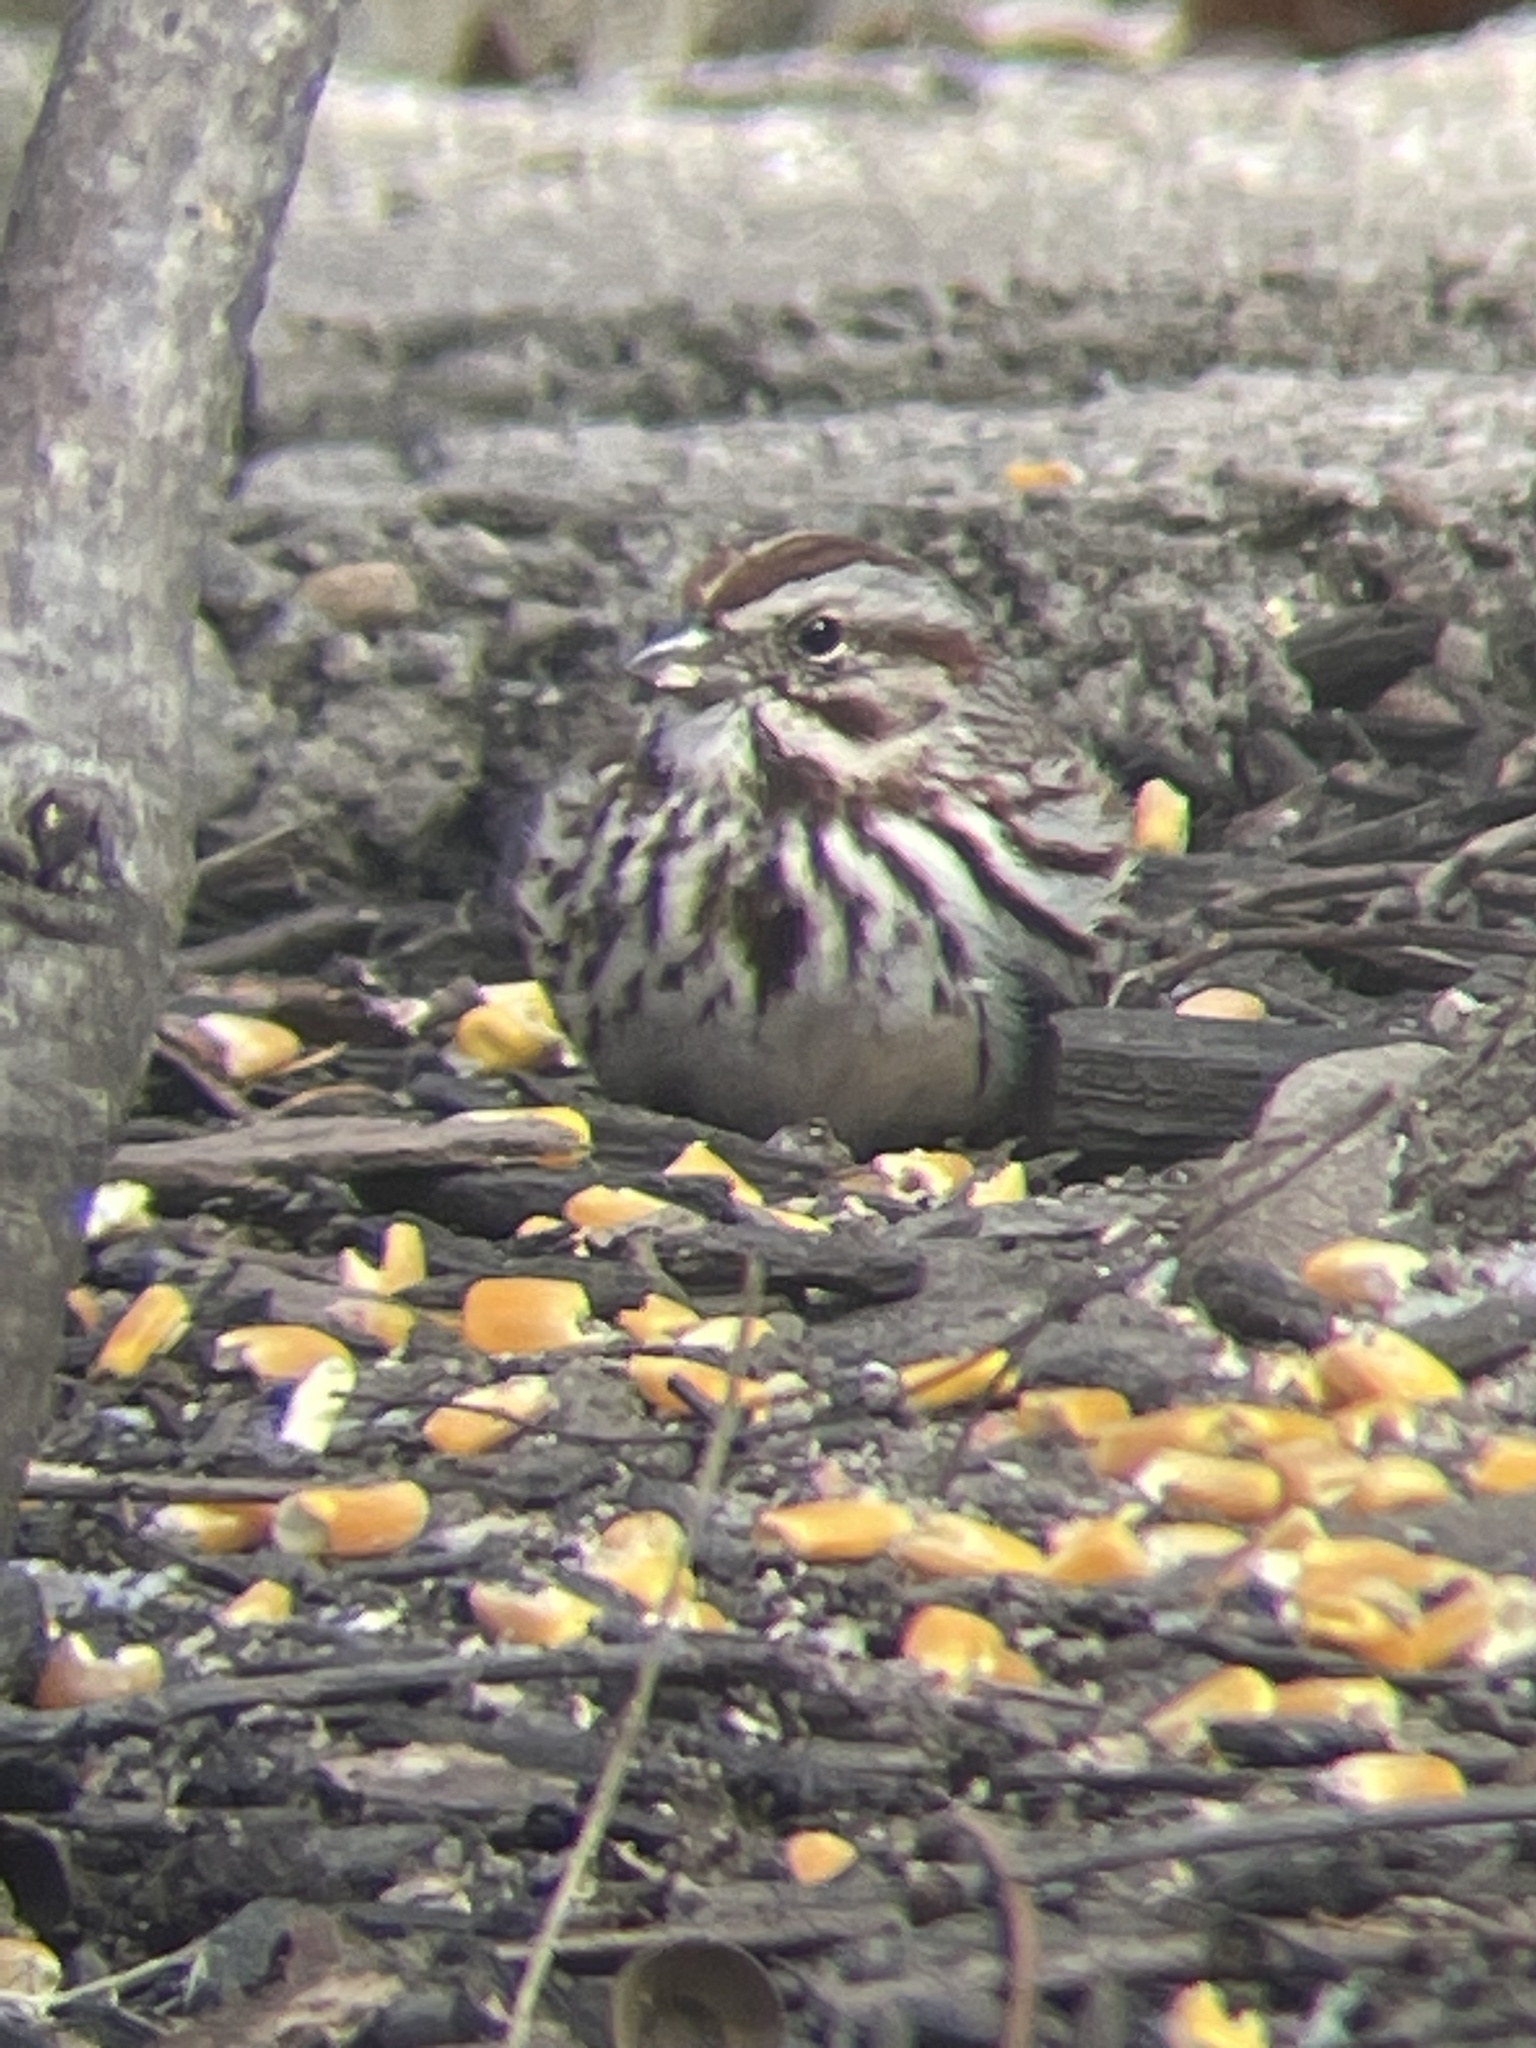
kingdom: Animalia
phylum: Chordata
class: Aves
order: Passeriformes
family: Passerellidae
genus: Melospiza
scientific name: Melospiza melodia
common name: Song sparrow
